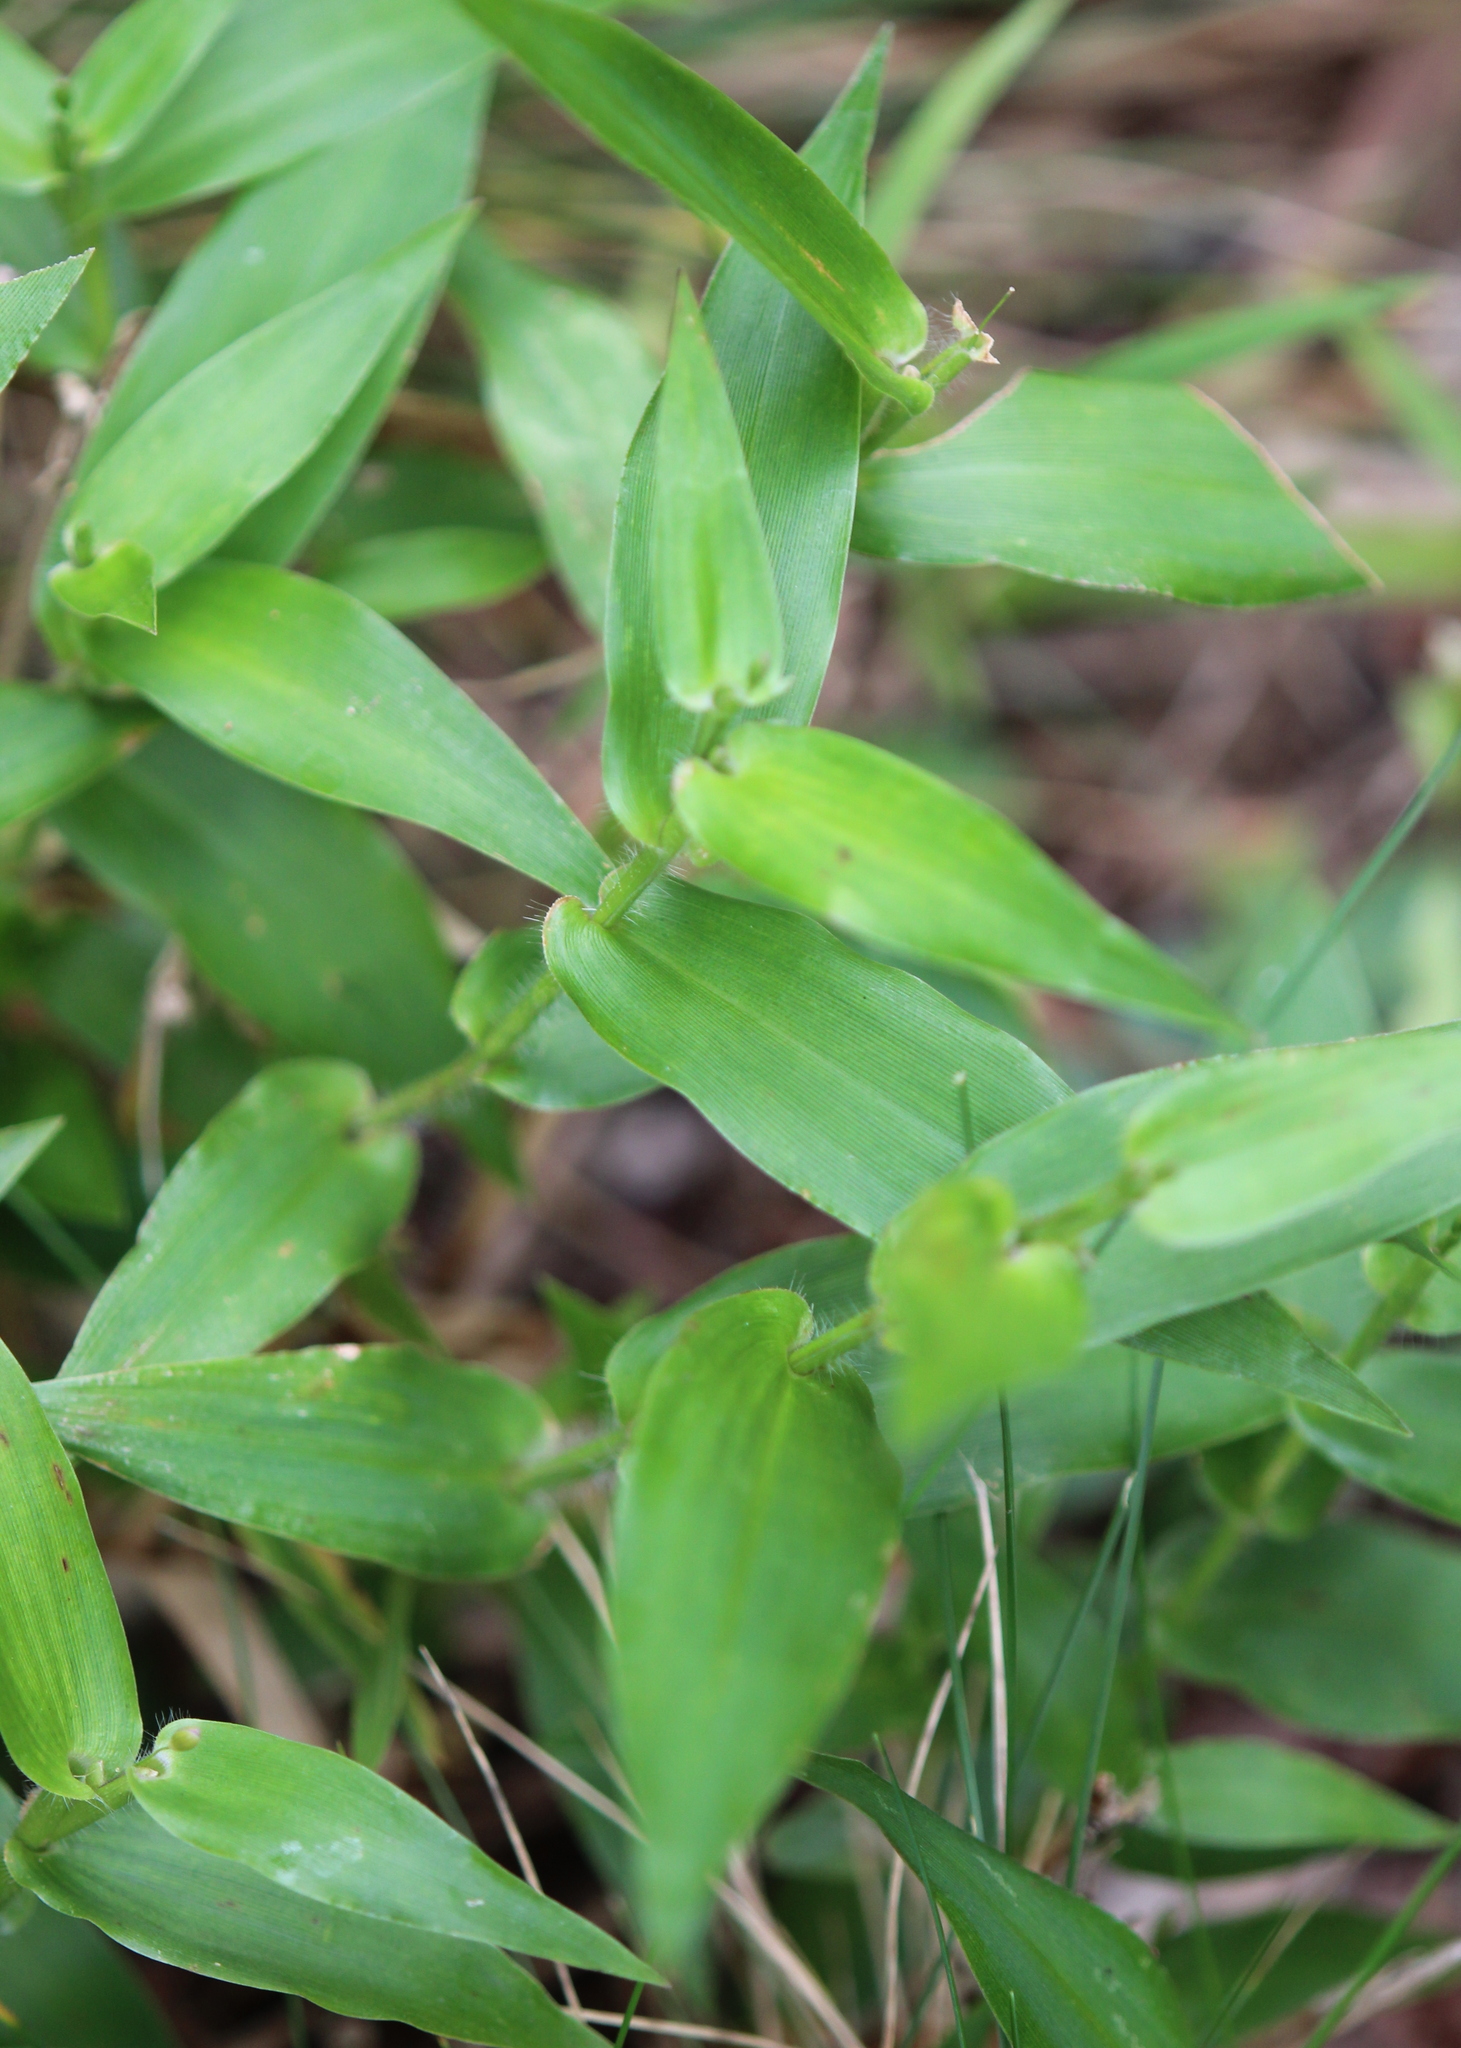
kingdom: Plantae
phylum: Tracheophyta
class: Liliopsida
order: Poales
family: Poaceae
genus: Dichanthelium
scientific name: Dichanthelium clandestinum
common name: Deer-tongue grass
